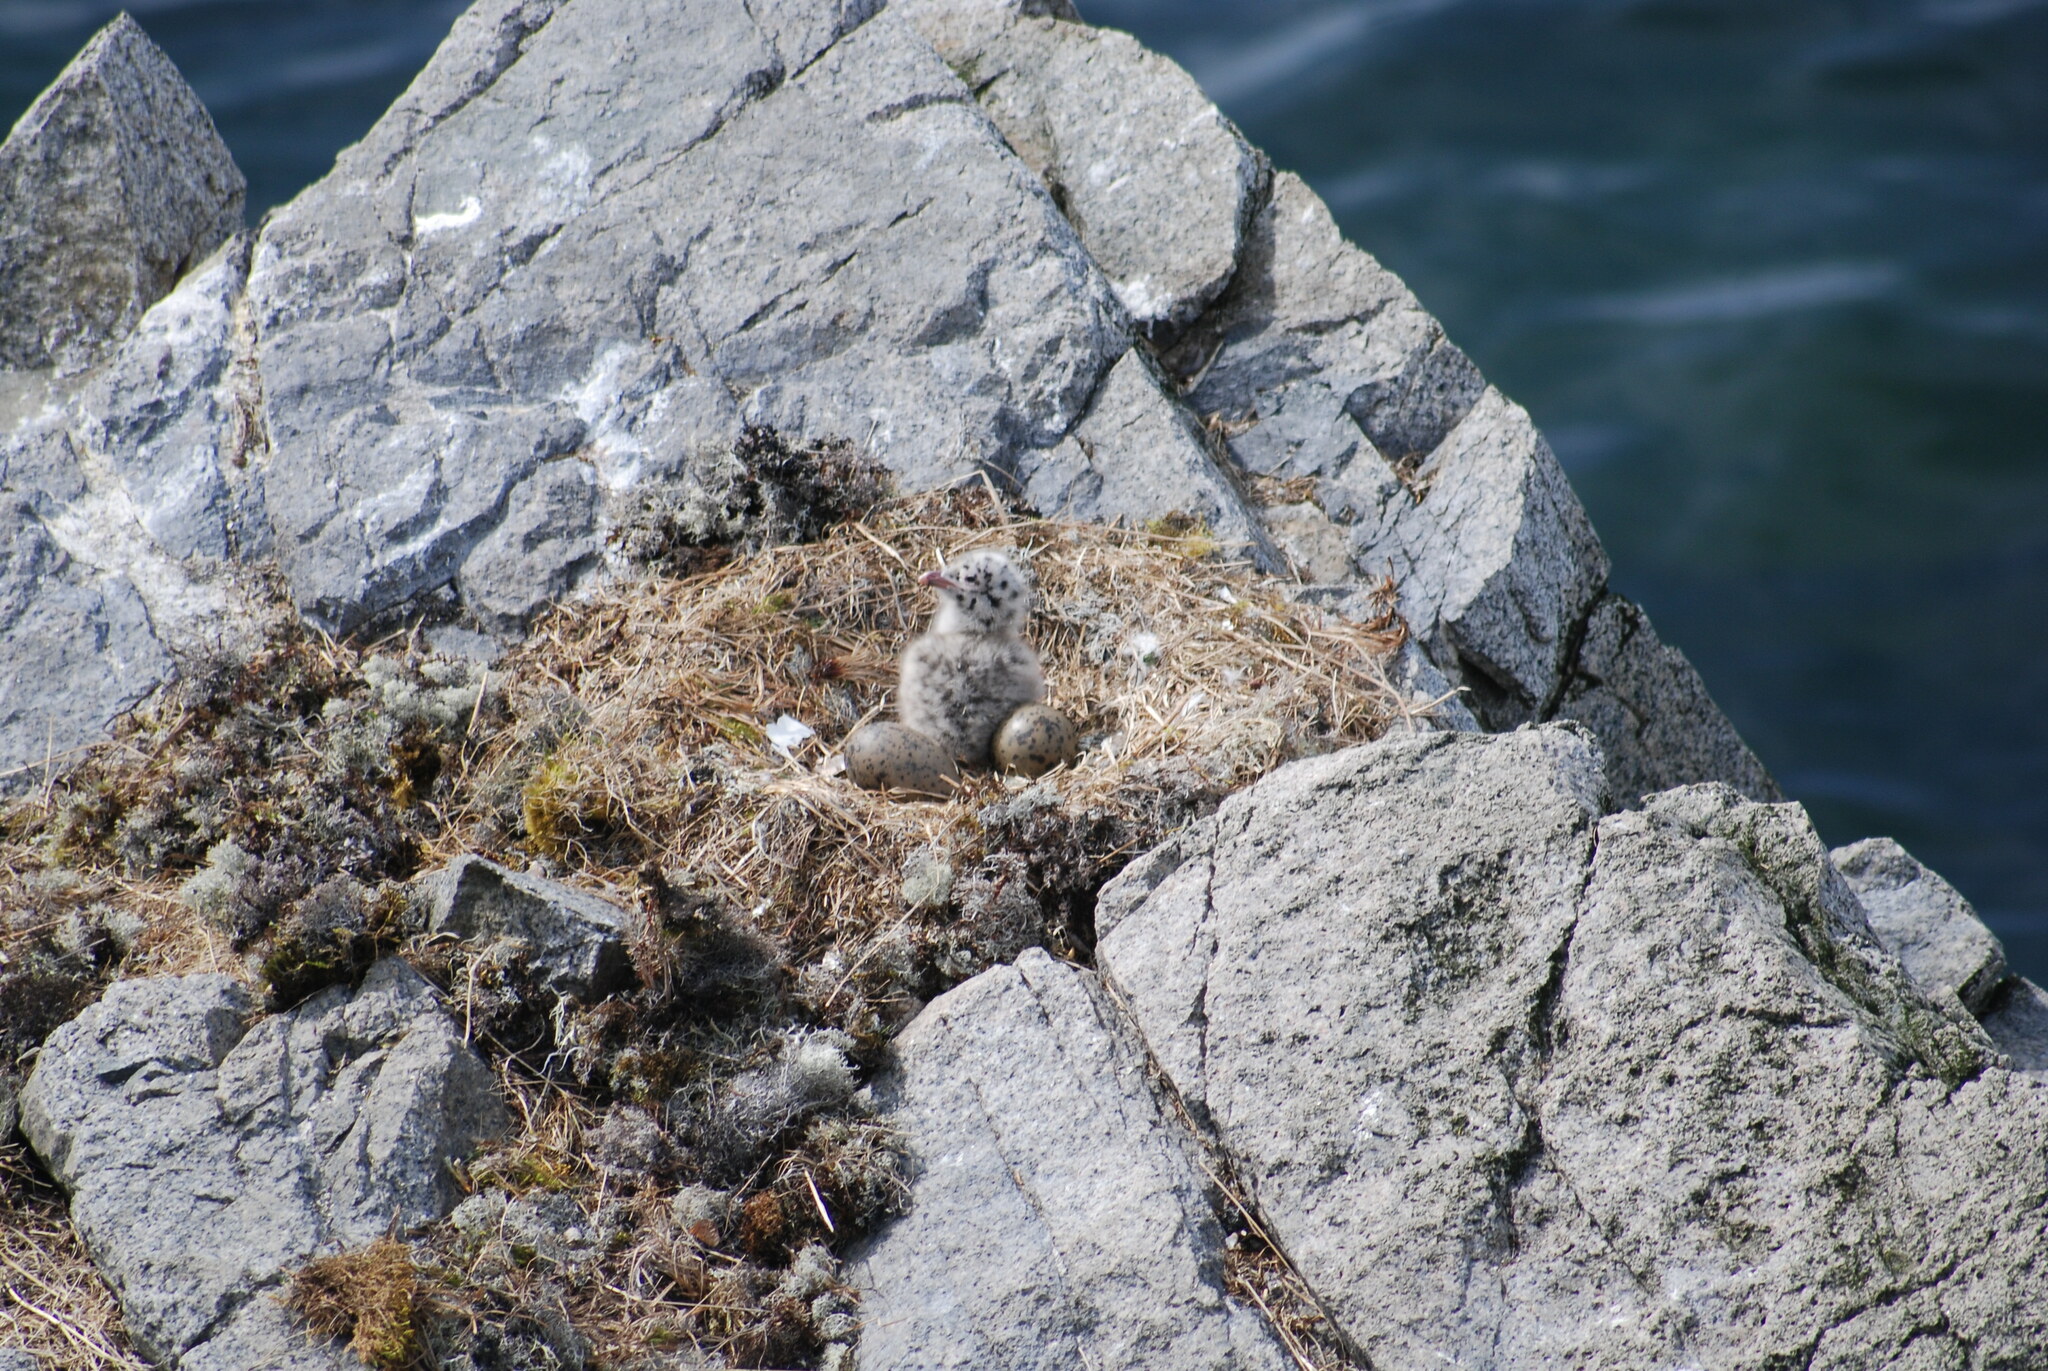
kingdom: Animalia
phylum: Chordata
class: Aves
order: Charadriiformes
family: Laridae
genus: Larus
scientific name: Larus hyperboreus
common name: Glaucous gull
